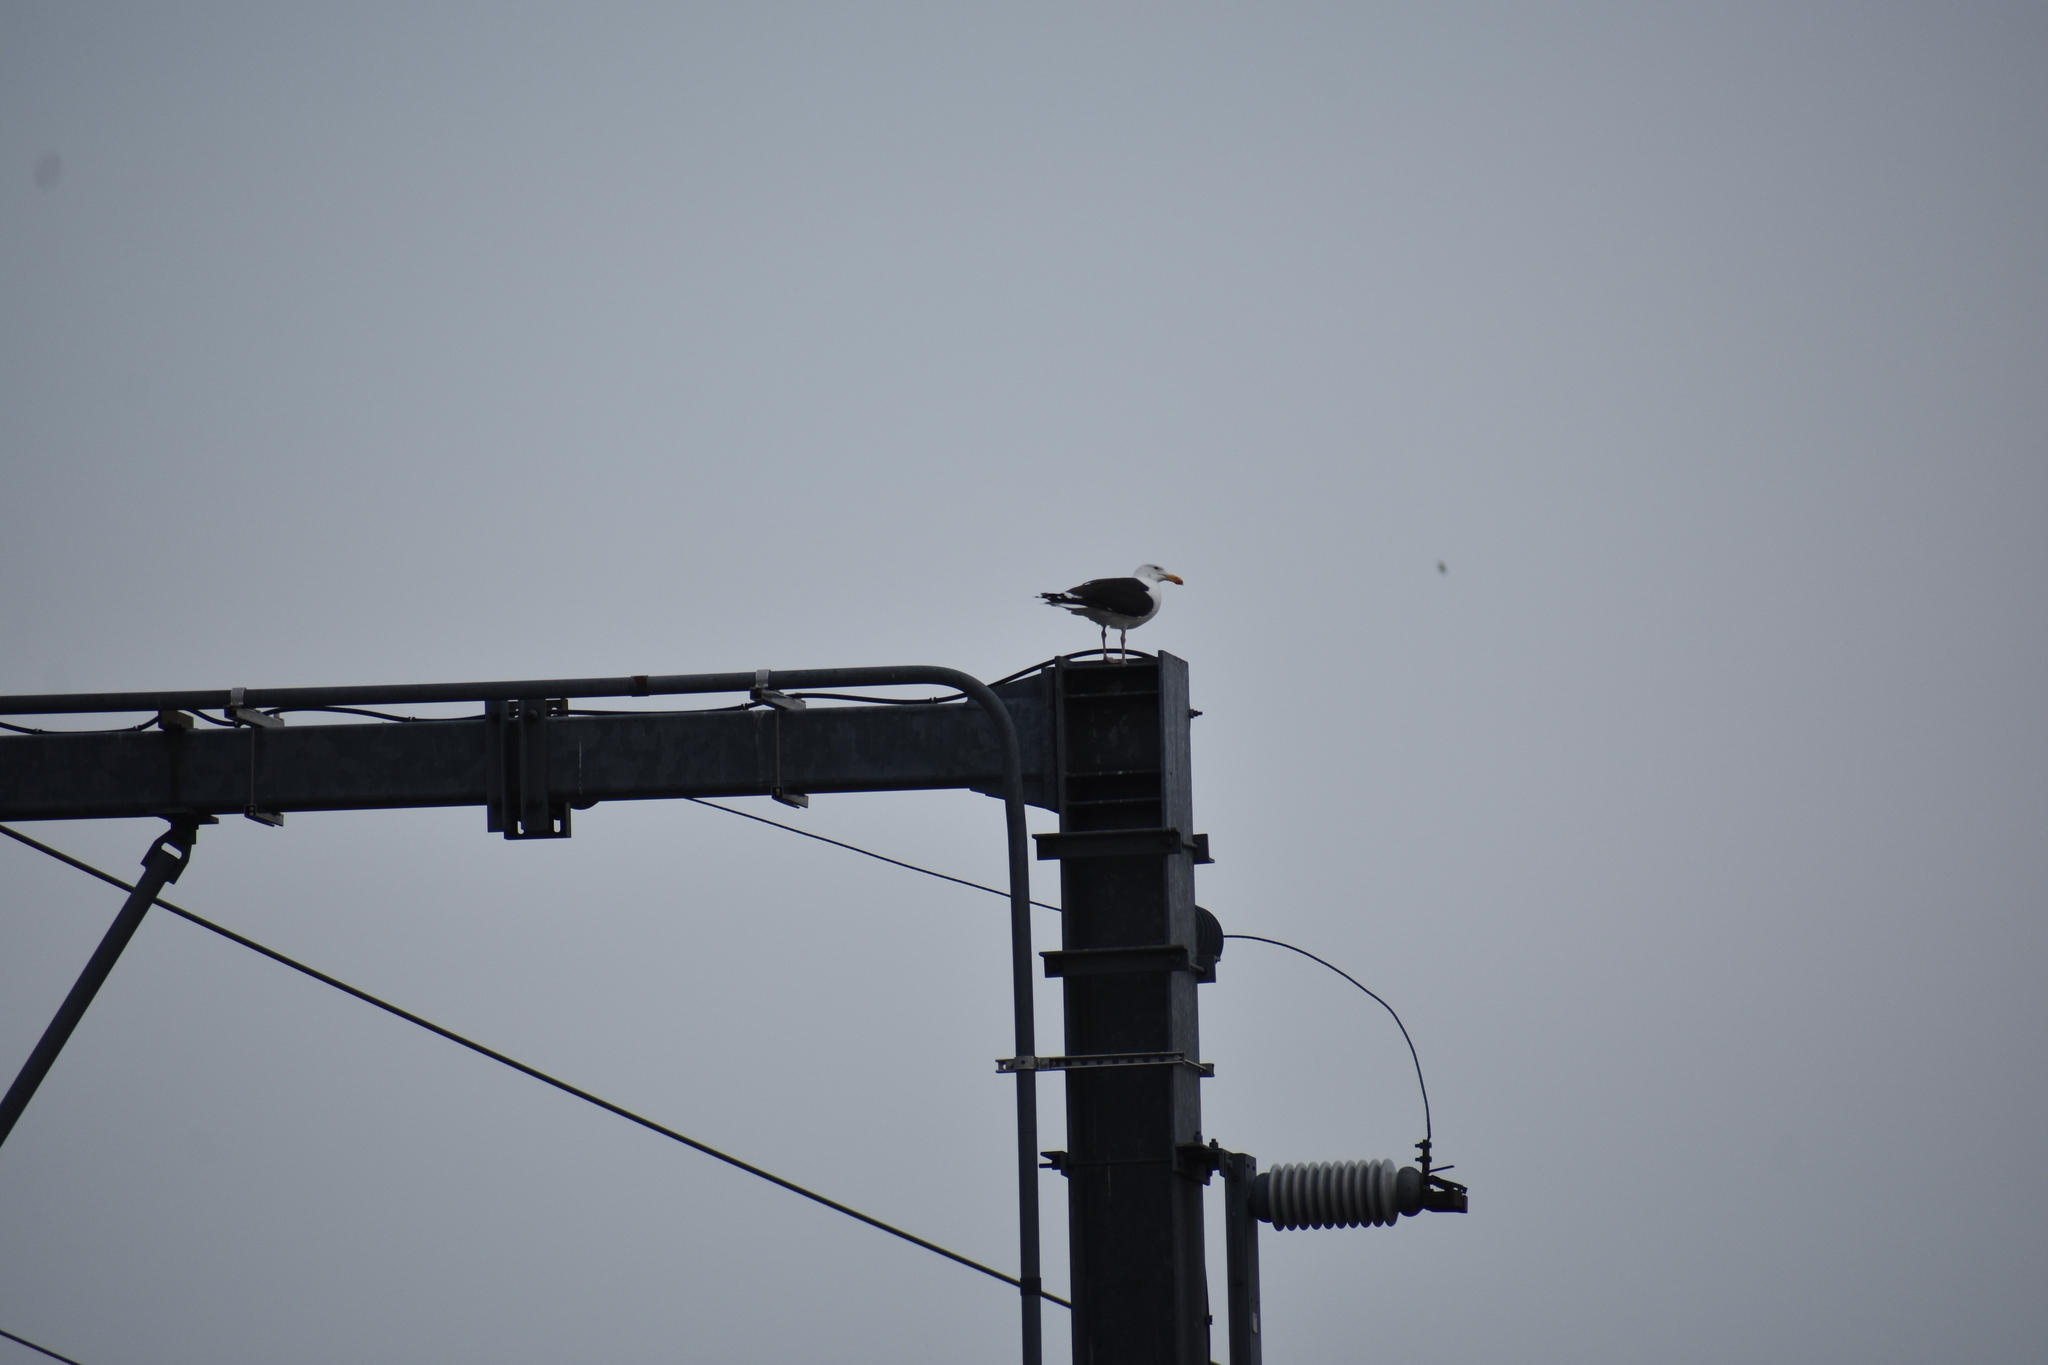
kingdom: Animalia
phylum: Chordata
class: Aves
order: Charadriiformes
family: Laridae
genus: Larus
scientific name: Larus marinus
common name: Great black-backed gull
